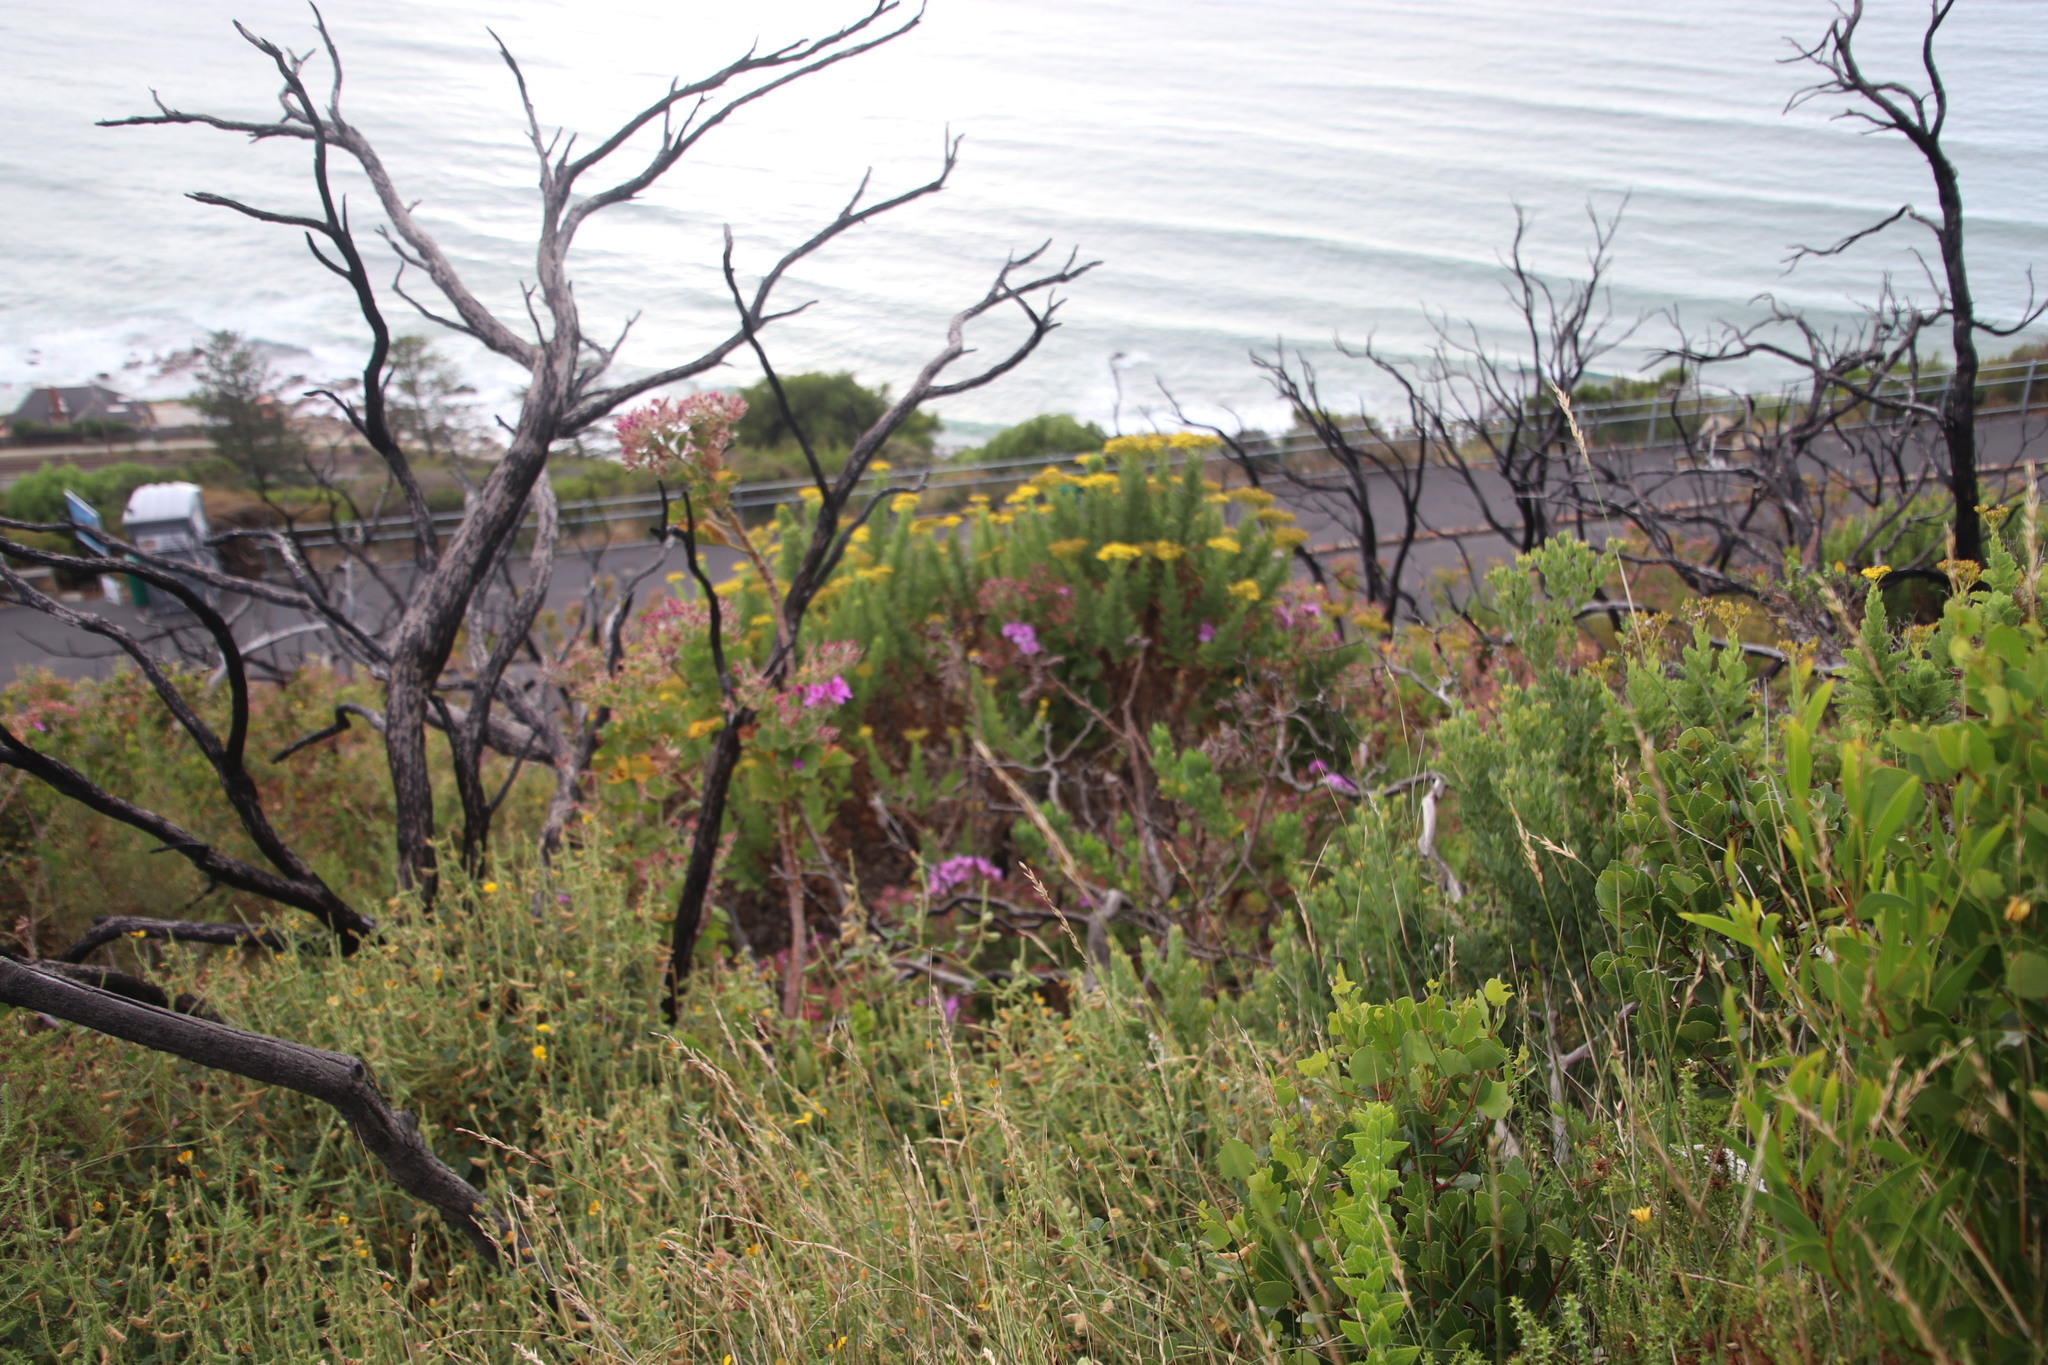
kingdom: Plantae
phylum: Tracheophyta
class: Magnoliopsida
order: Asterales
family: Asteraceae
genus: Athanasia
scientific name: Athanasia crithmifolia
